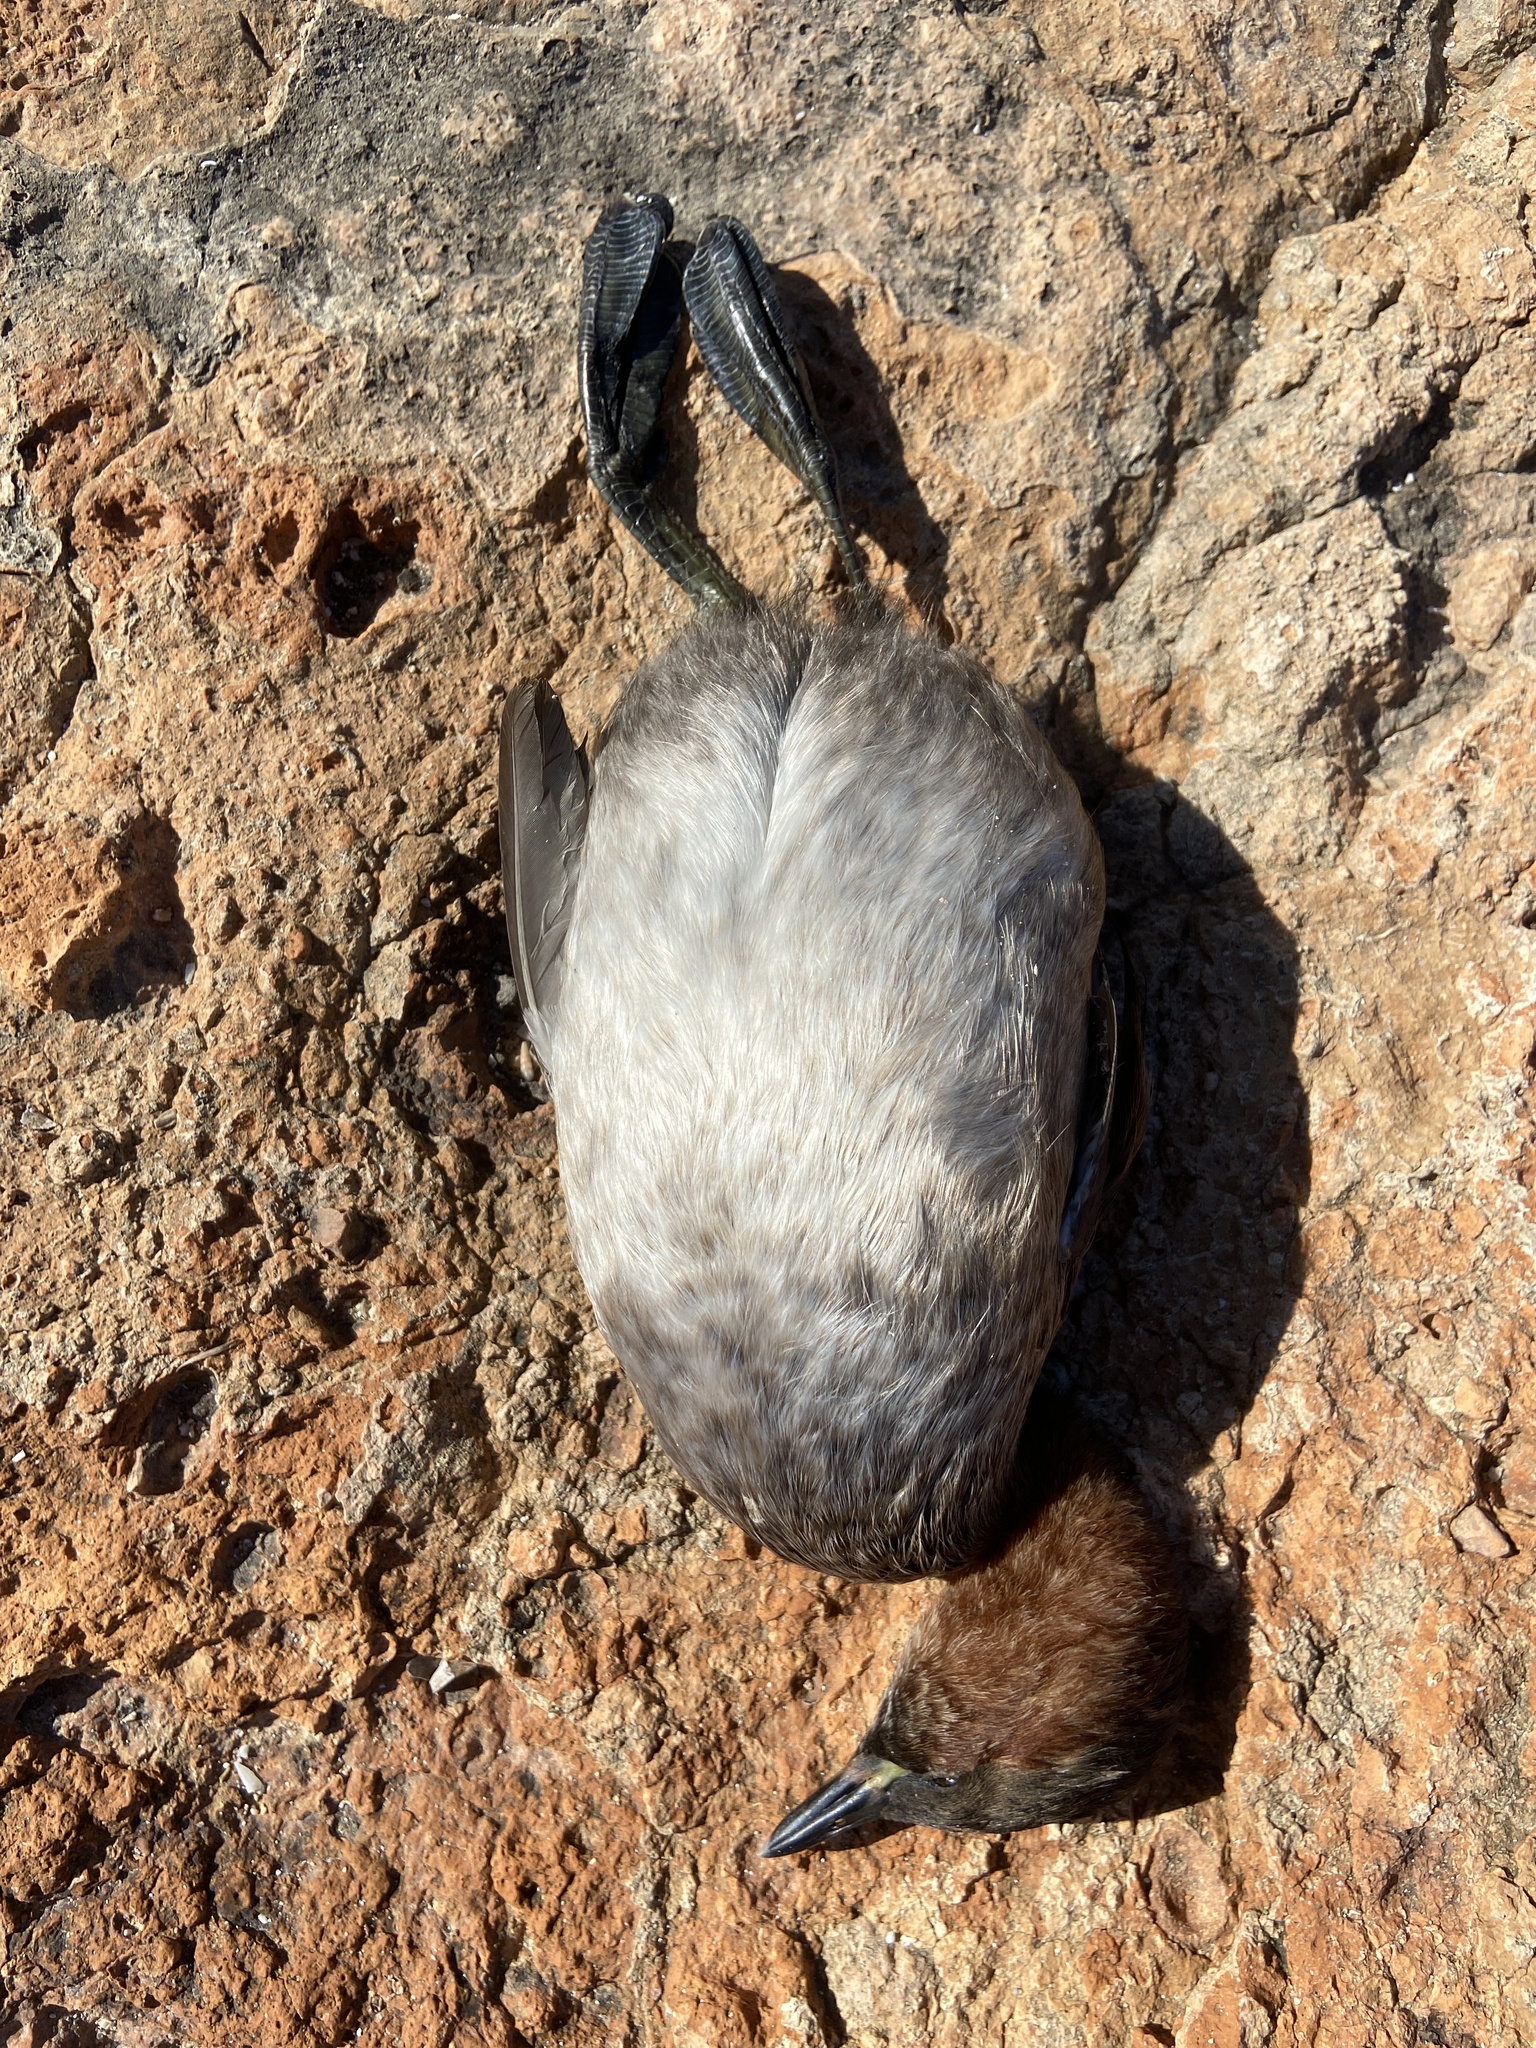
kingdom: Animalia
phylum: Chordata
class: Aves
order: Podicipediformes
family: Podicipedidae
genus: Tachybaptus
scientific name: Tachybaptus ruficollis
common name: Little grebe
